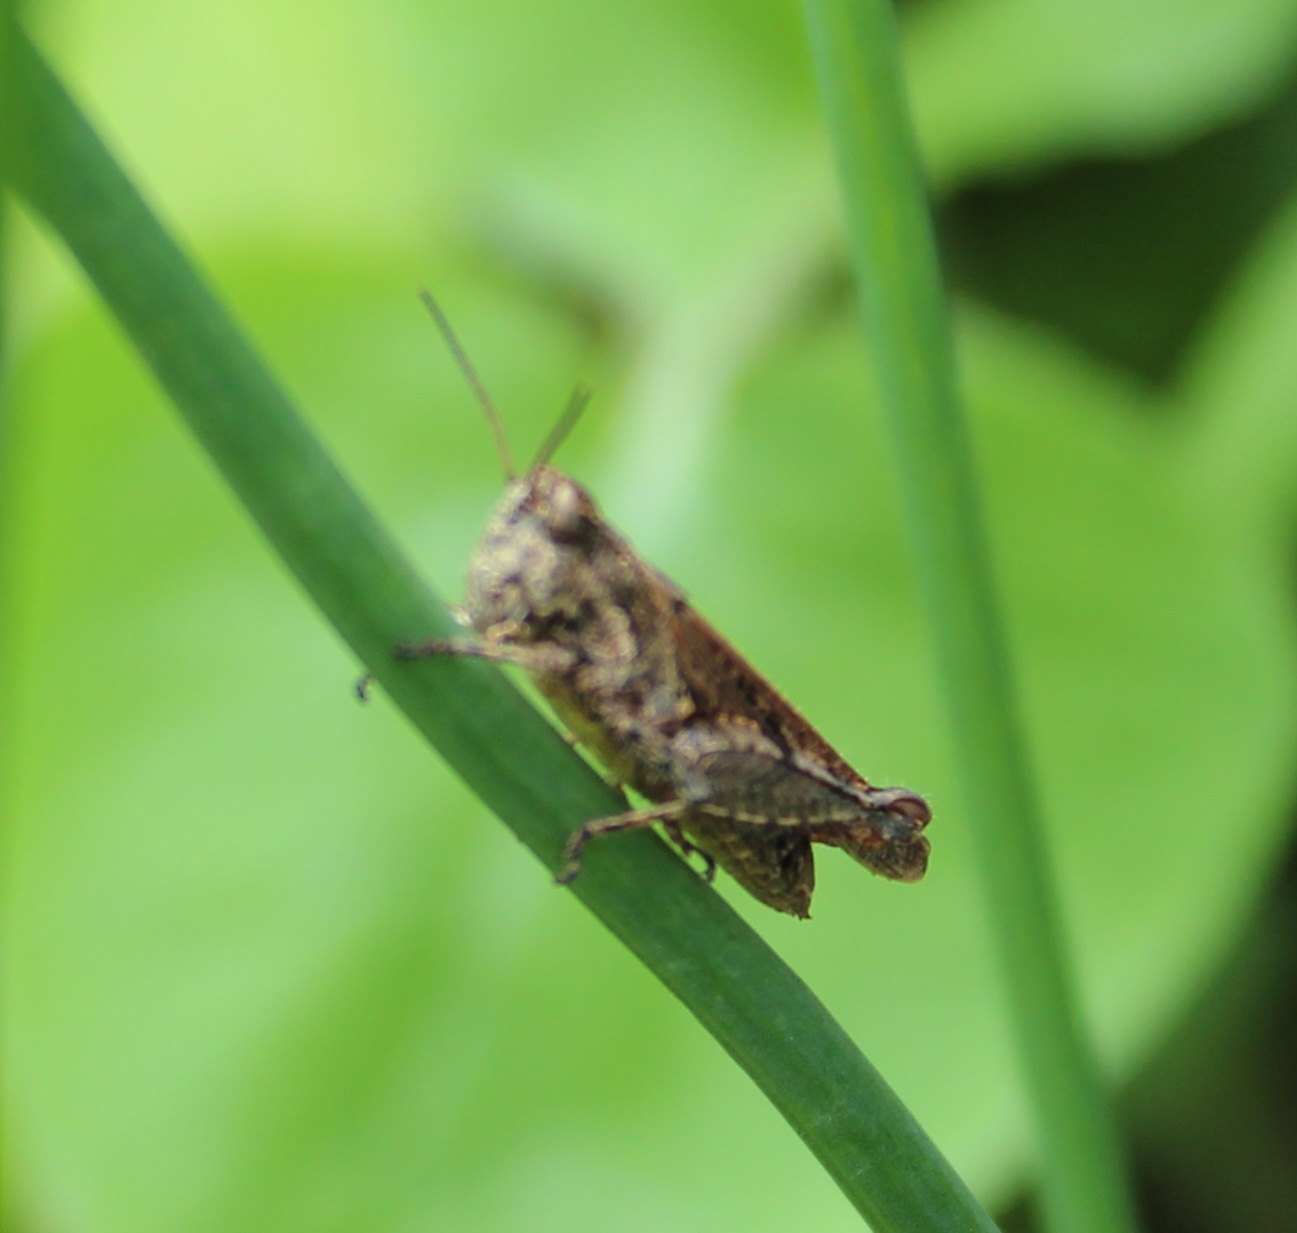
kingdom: Animalia
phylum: Arthropoda
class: Insecta
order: Orthoptera
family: Acrididae
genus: Baeacris
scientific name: Baeacris bogotensis
